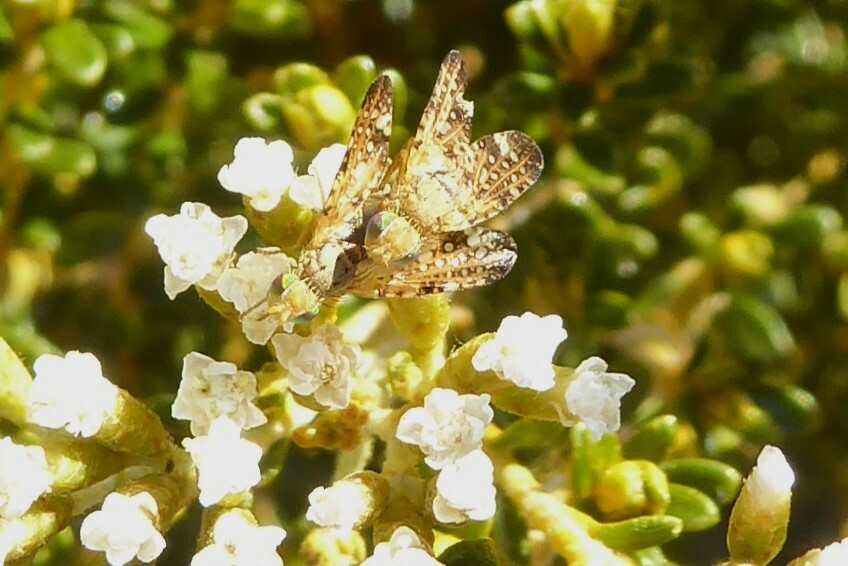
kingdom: Animalia
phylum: Arthropoda
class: Insecta
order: Diptera
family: Tephritidae
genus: Austrotephritis
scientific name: Austrotephritis
